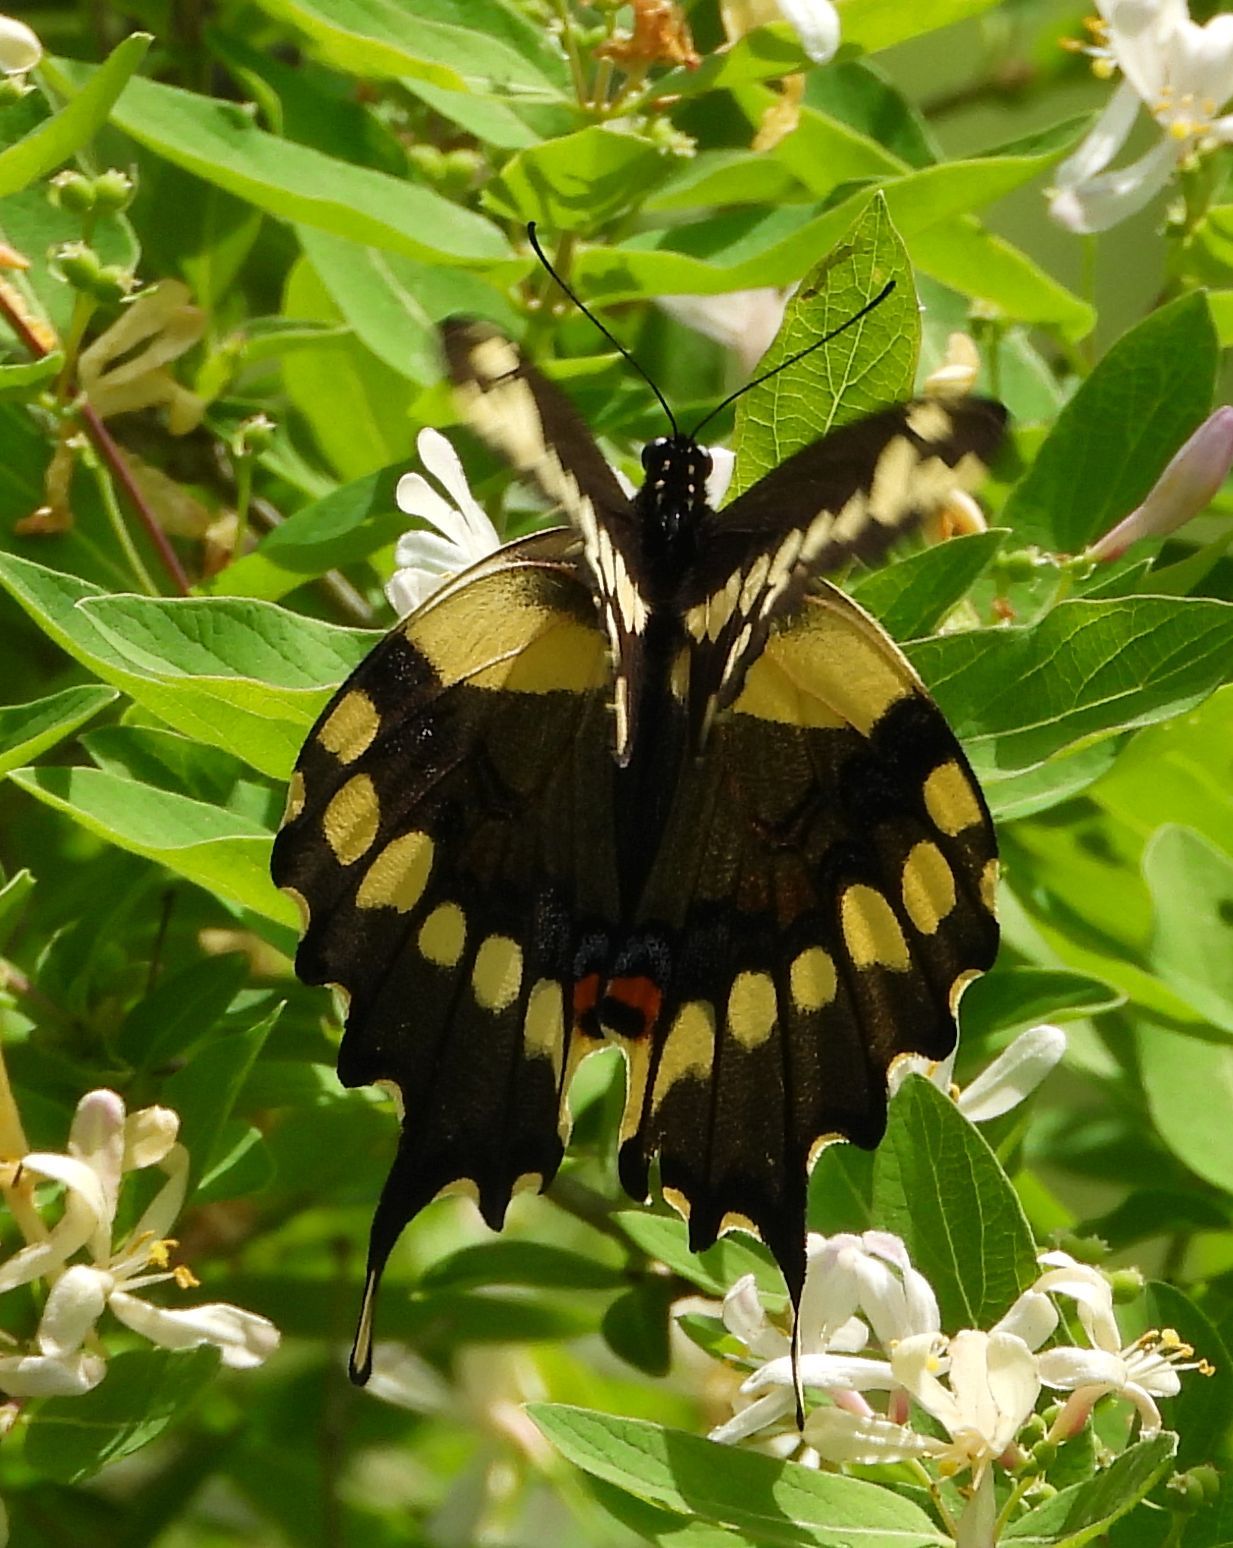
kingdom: Animalia
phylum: Arthropoda
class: Insecta
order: Lepidoptera
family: Papilionidae
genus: Papilio
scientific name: Papilio cresphontes
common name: Giant swallowtail
